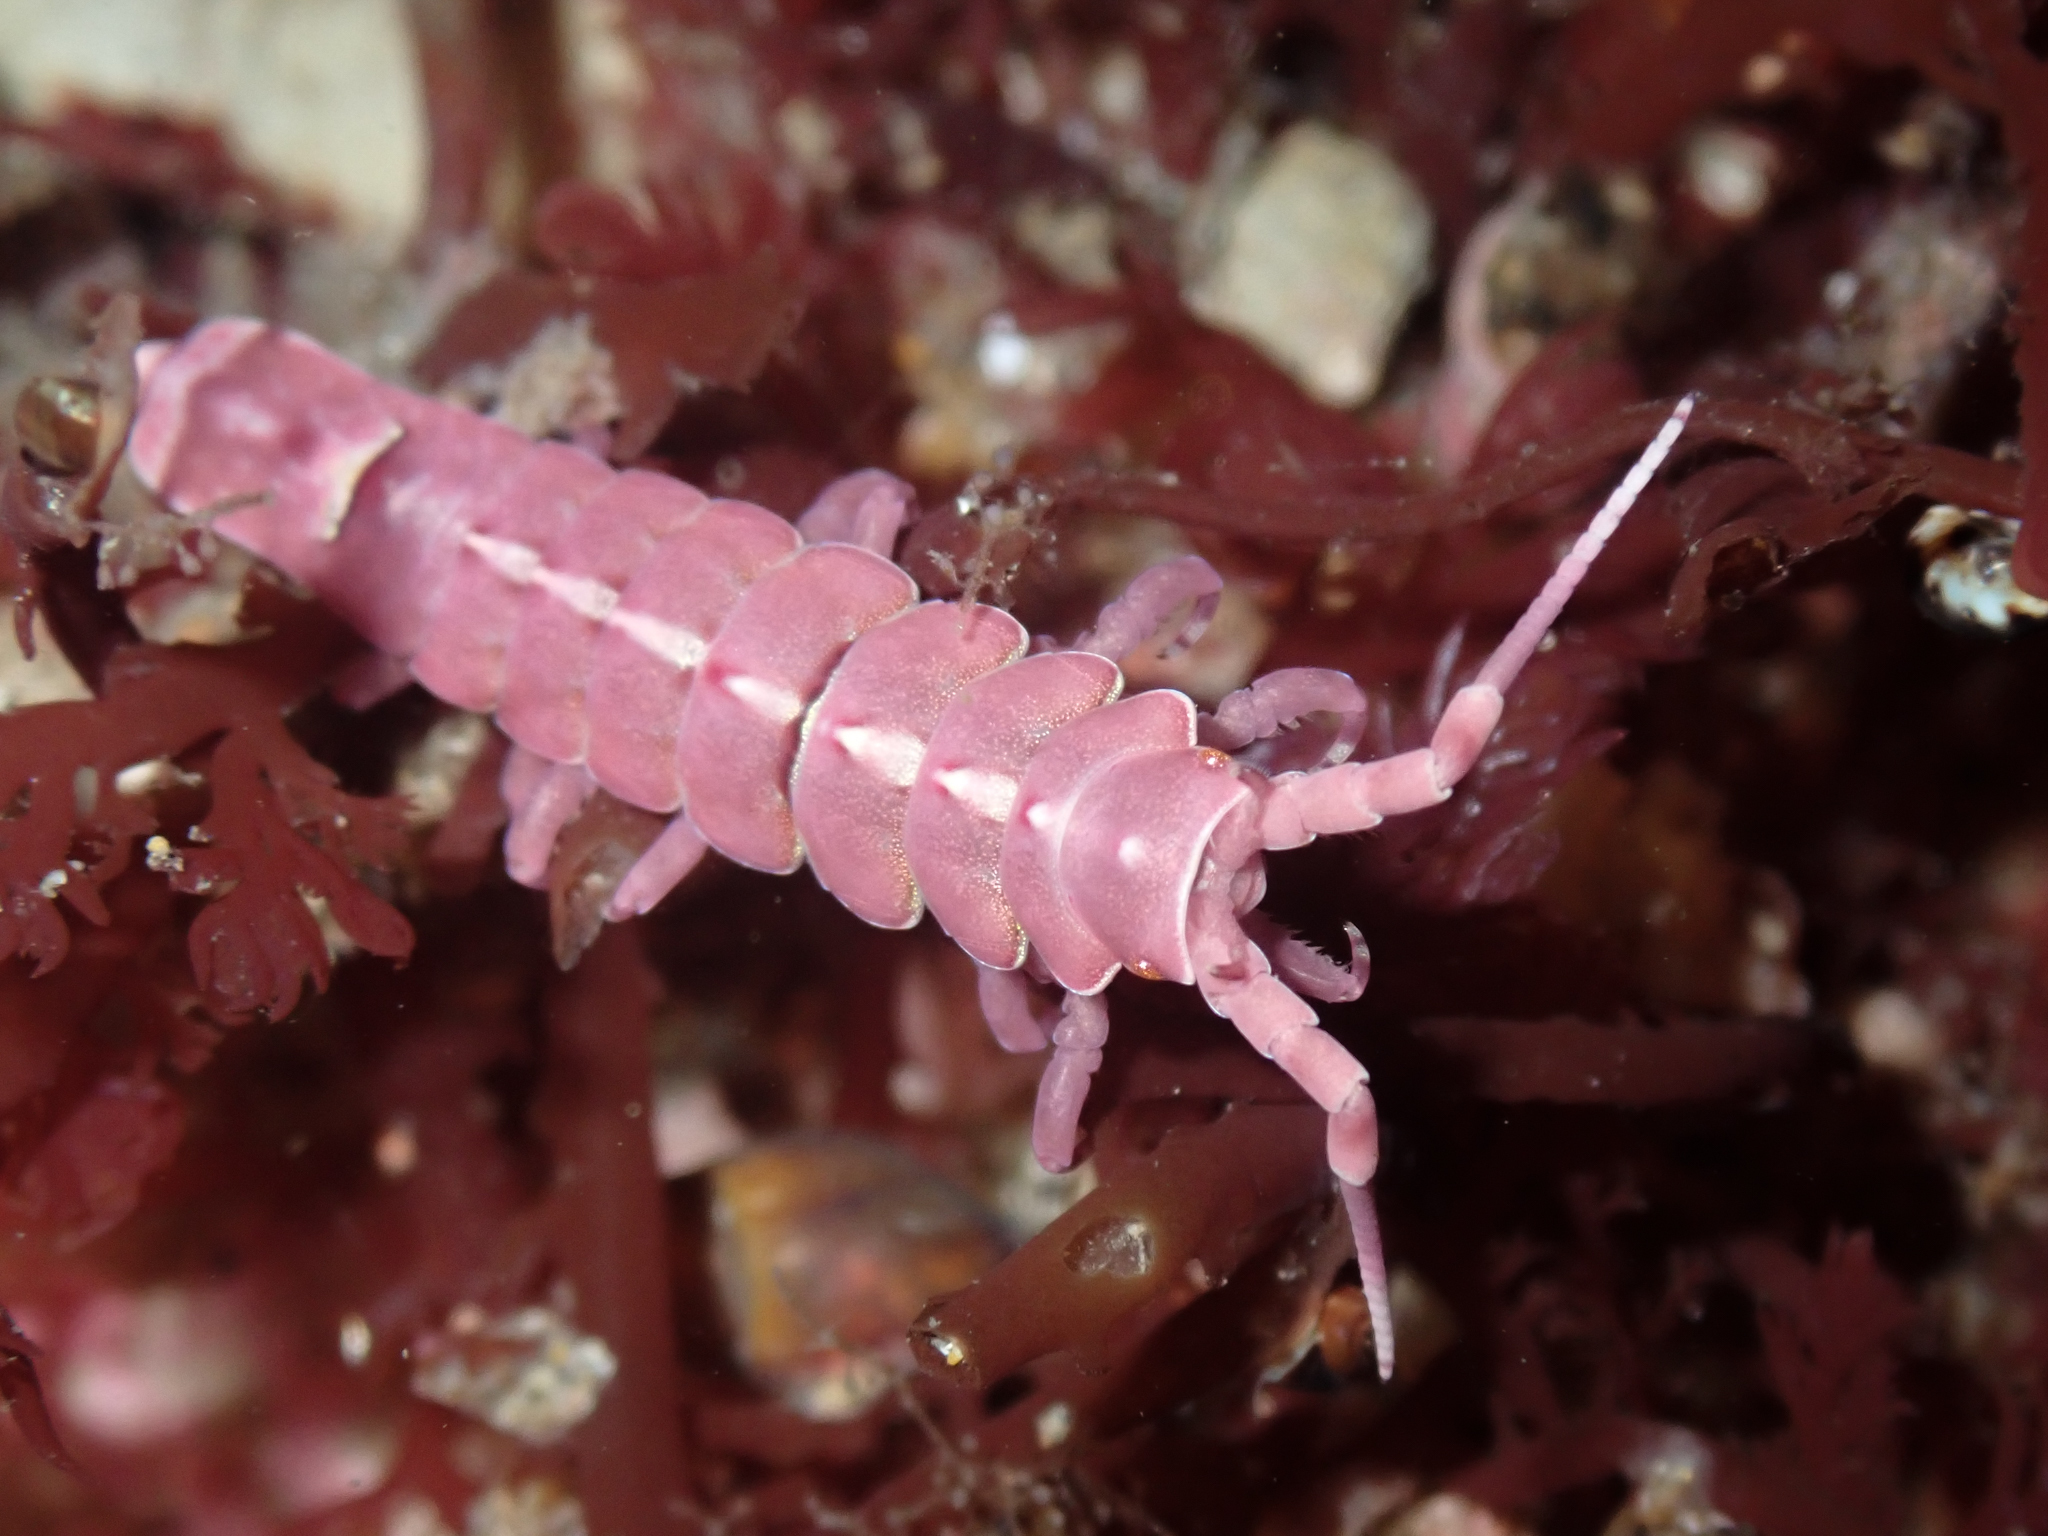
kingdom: Animalia
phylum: Arthropoda
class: Malacostraca
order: Isopoda
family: Idoteidae
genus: Pentidotea
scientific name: Pentidotea aculeata
